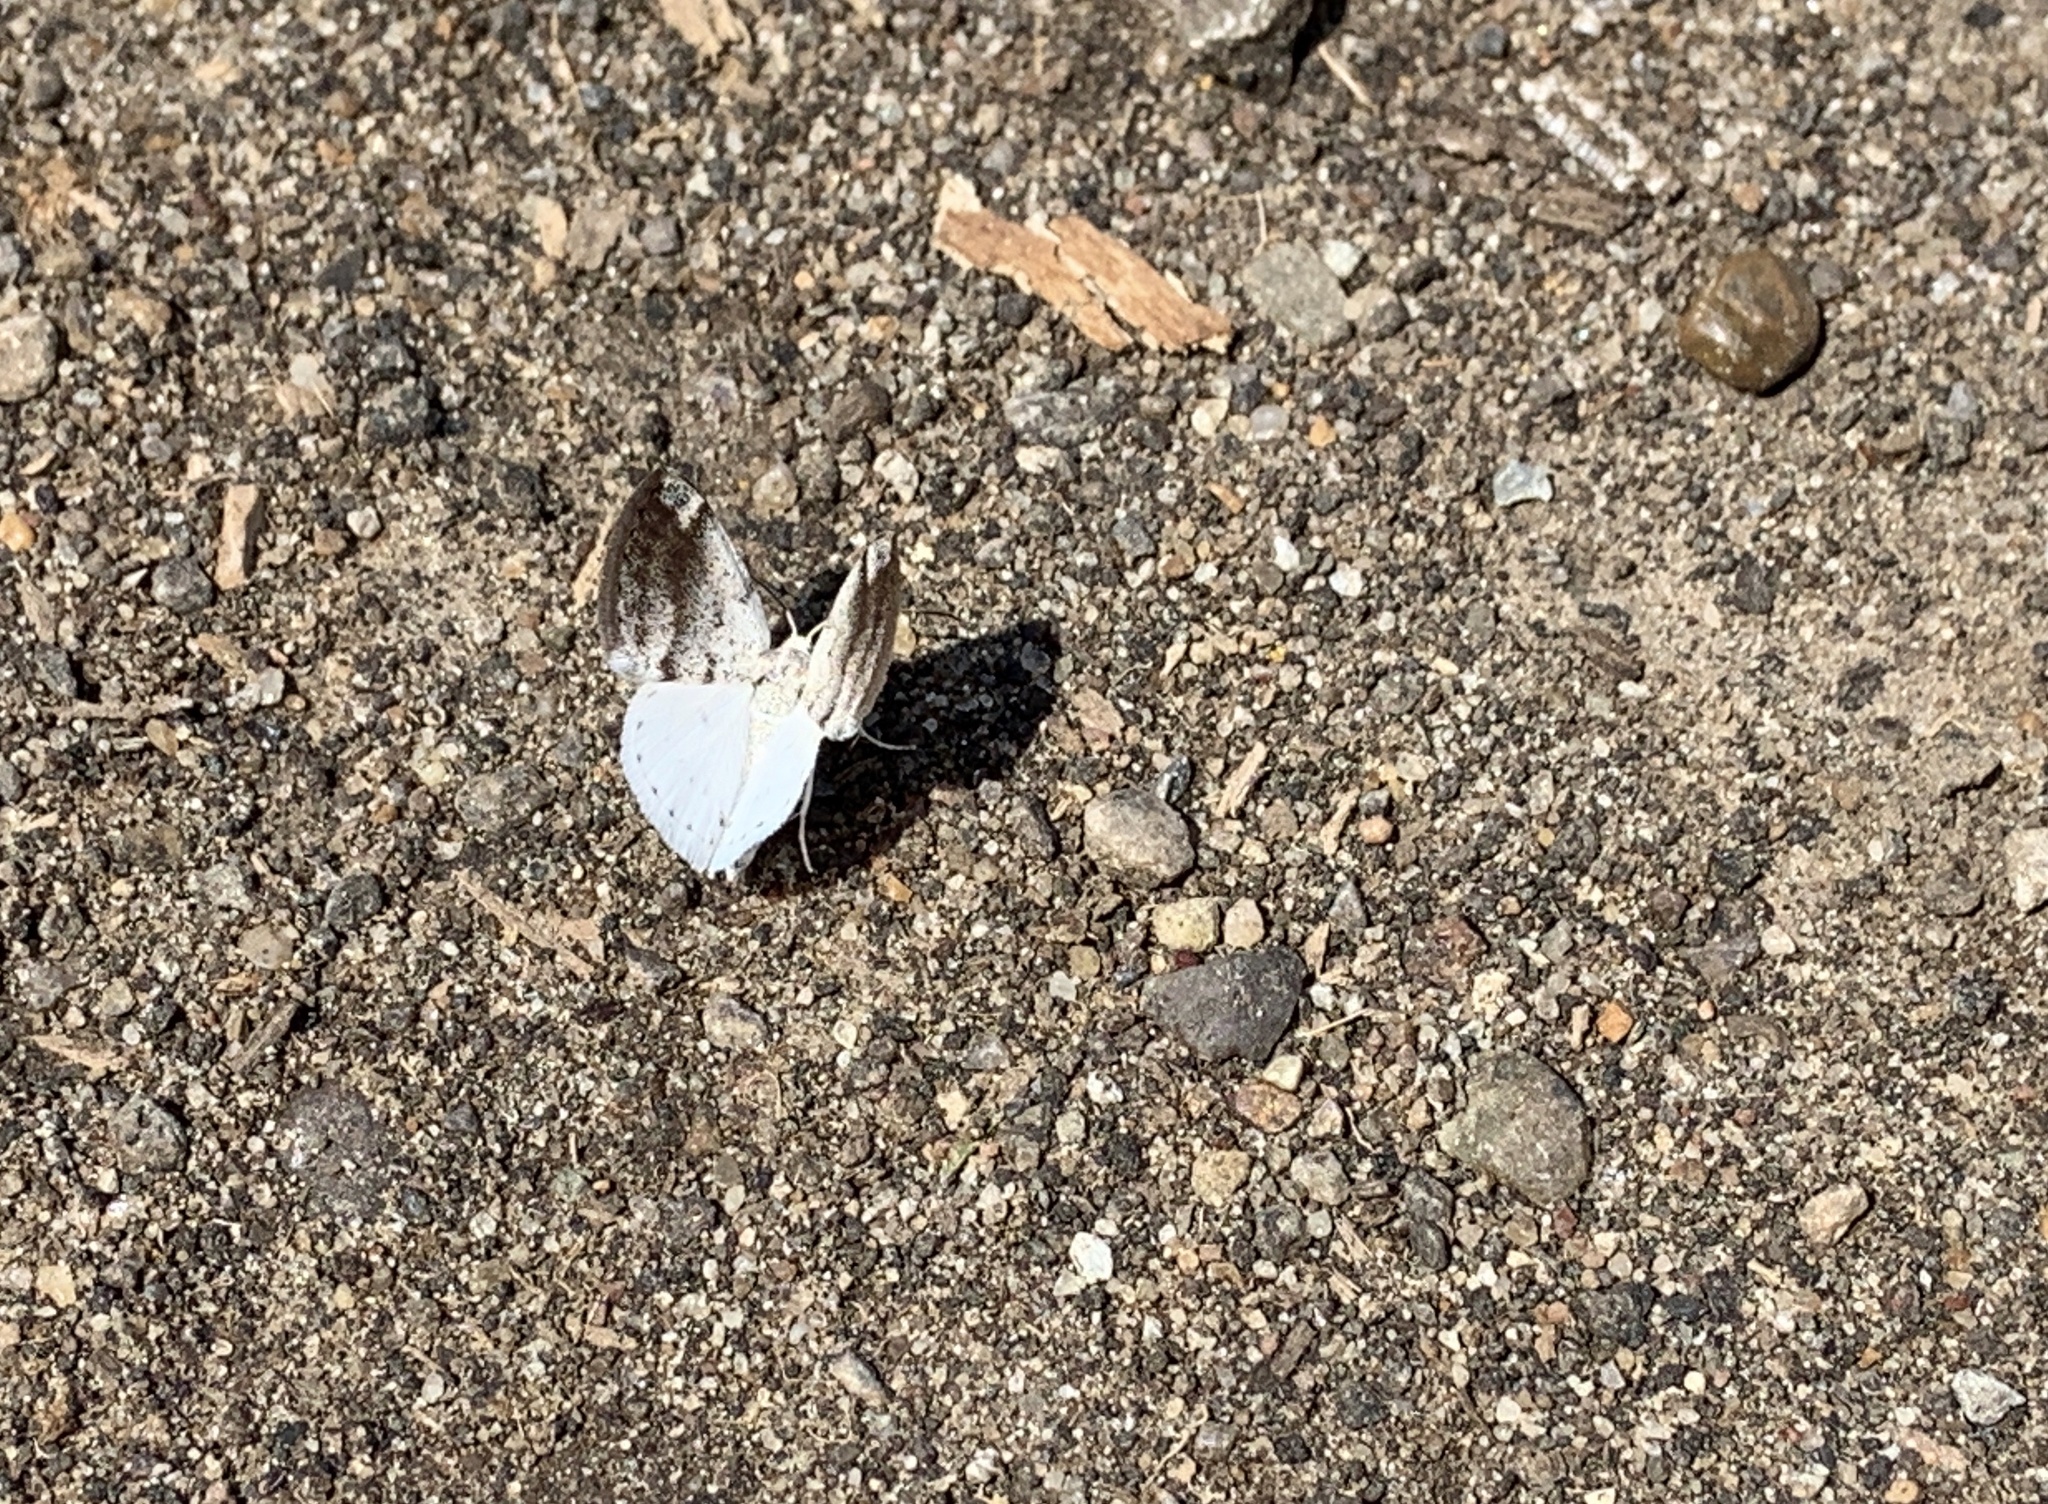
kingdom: Animalia
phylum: Arthropoda
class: Insecta
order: Lepidoptera
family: Geometridae
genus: Lomographa
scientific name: Lomographa semiclarata
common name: Bluish spring moth
